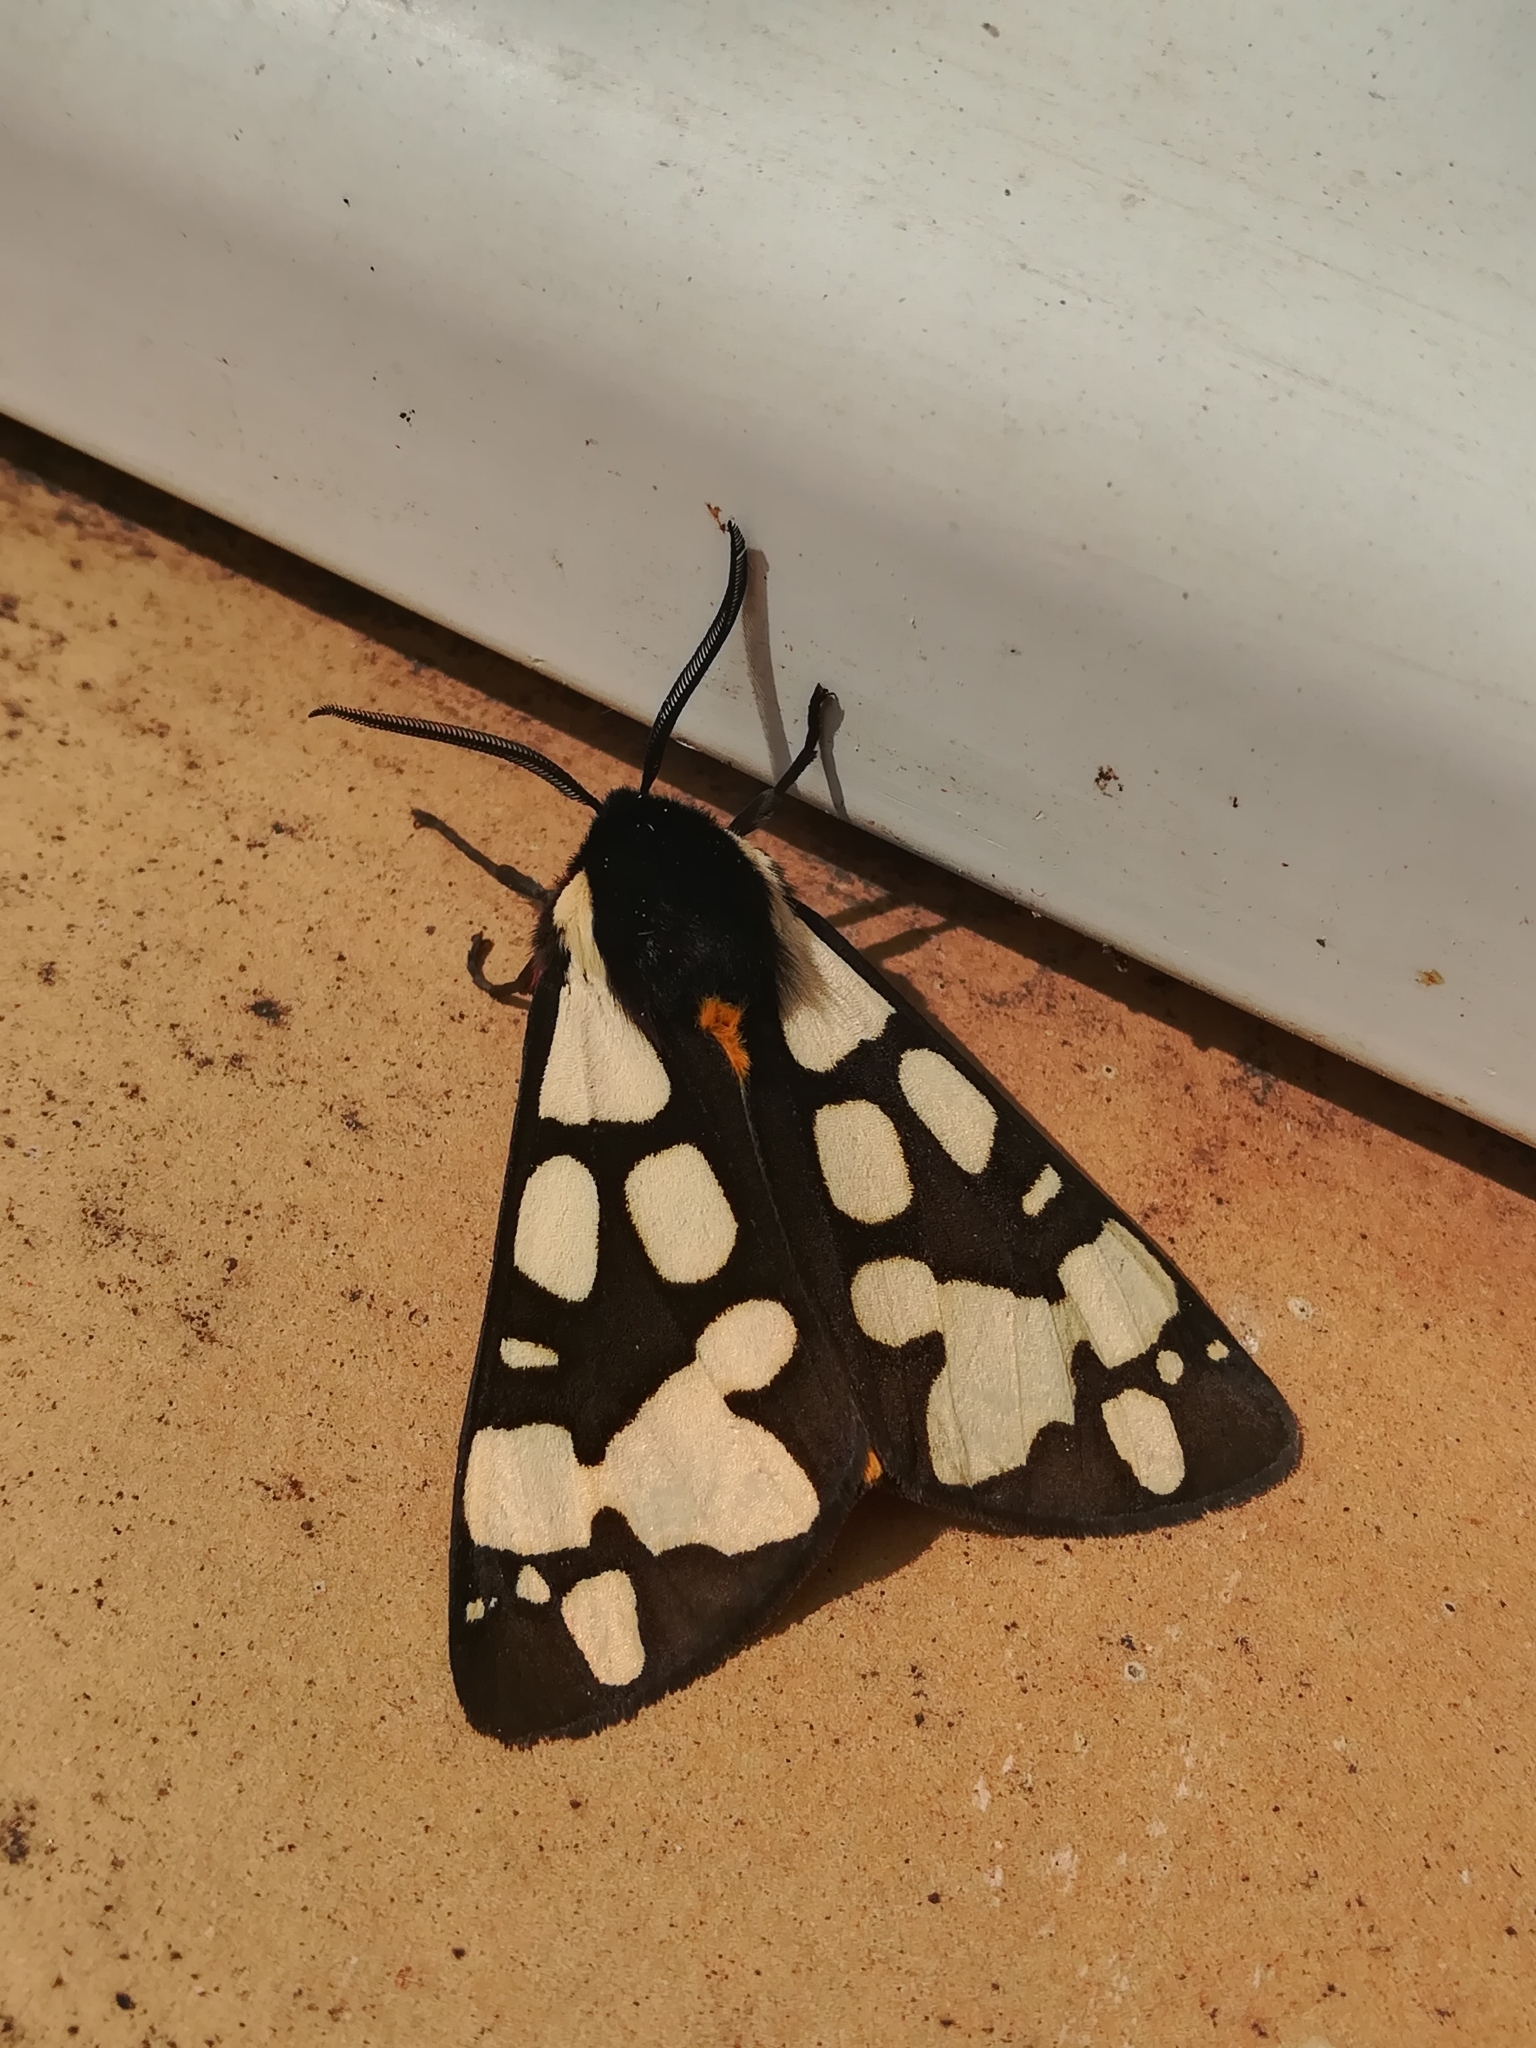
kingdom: Animalia
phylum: Arthropoda
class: Insecta
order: Lepidoptera
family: Erebidae
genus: Epicallia
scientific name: Epicallia villica
